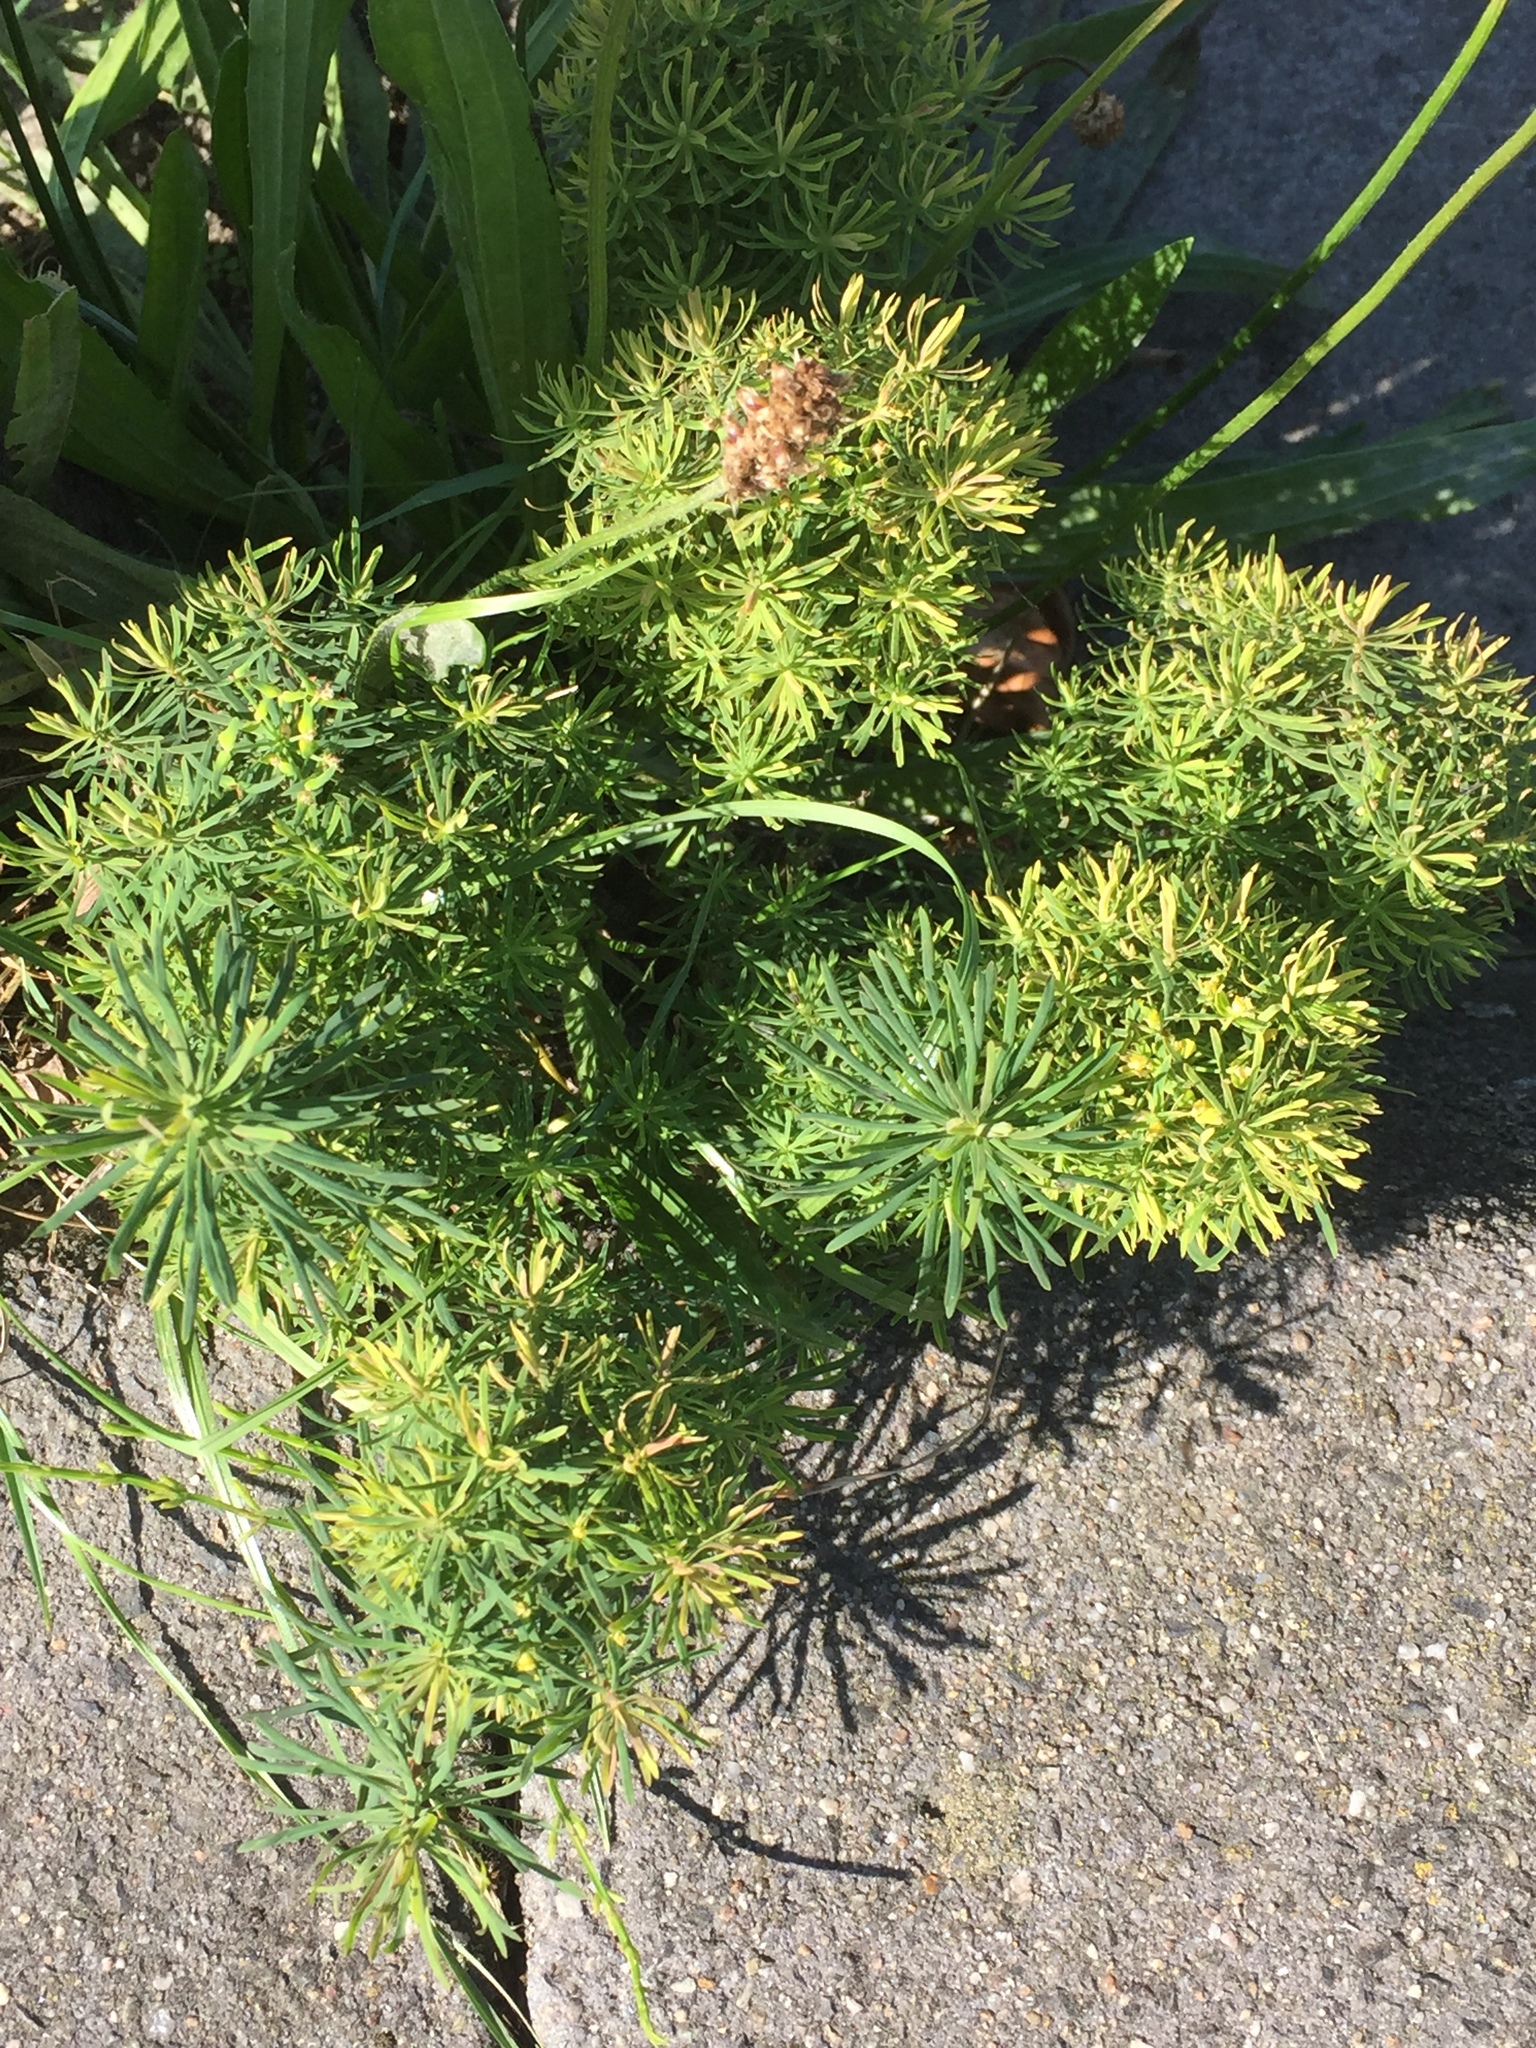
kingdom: Plantae
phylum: Tracheophyta
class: Magnoliopsida
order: Malpighiales
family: Euphorbiaceae
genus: Euphorbia
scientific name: Euphorbia cyparissias
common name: Cypress spurge
